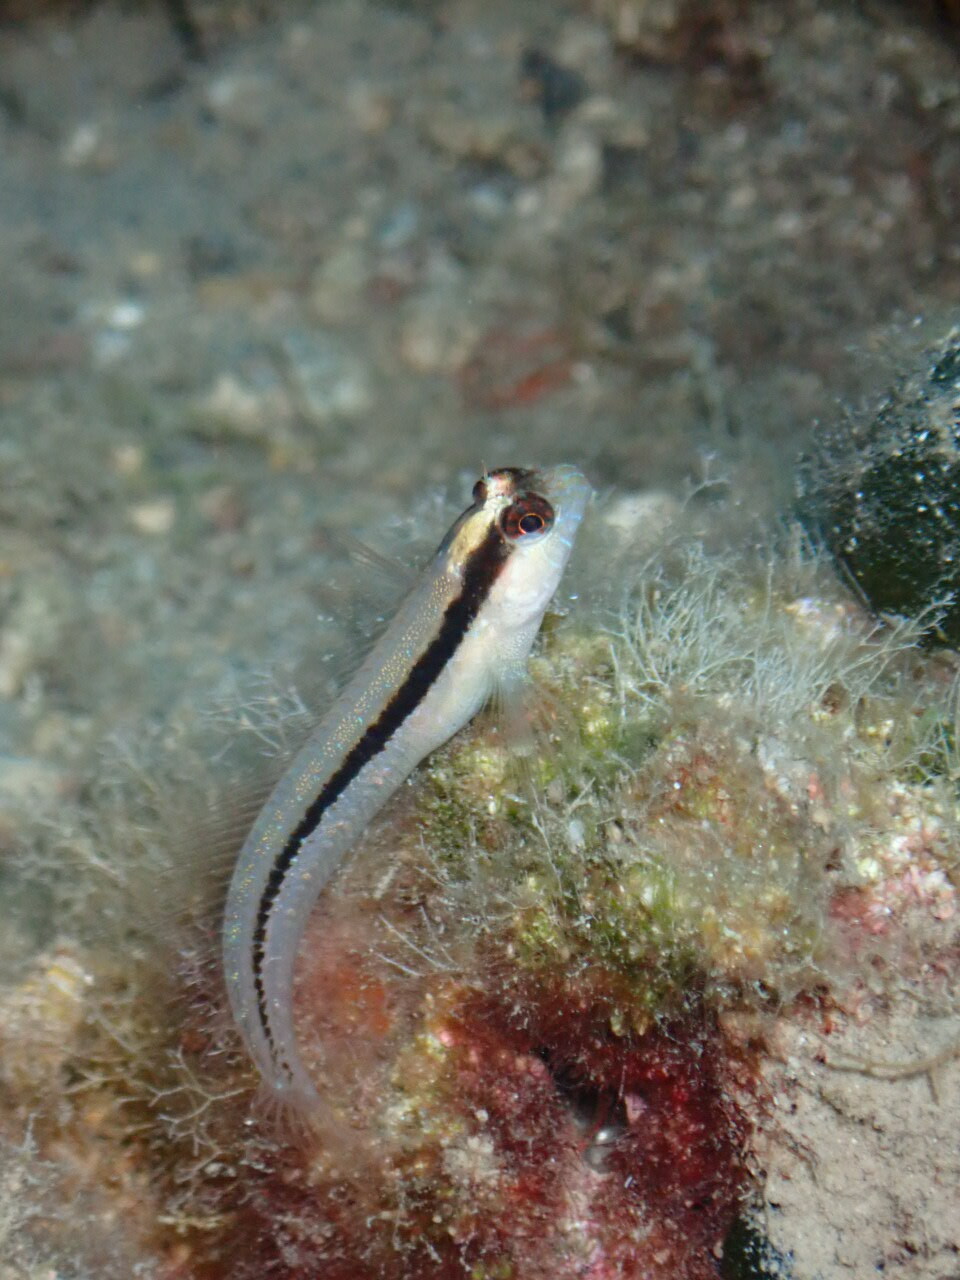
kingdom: Animalia
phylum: Chordata
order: Perciformes
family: Blenniidae
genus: Parablennius
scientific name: Parablennius rouxi
